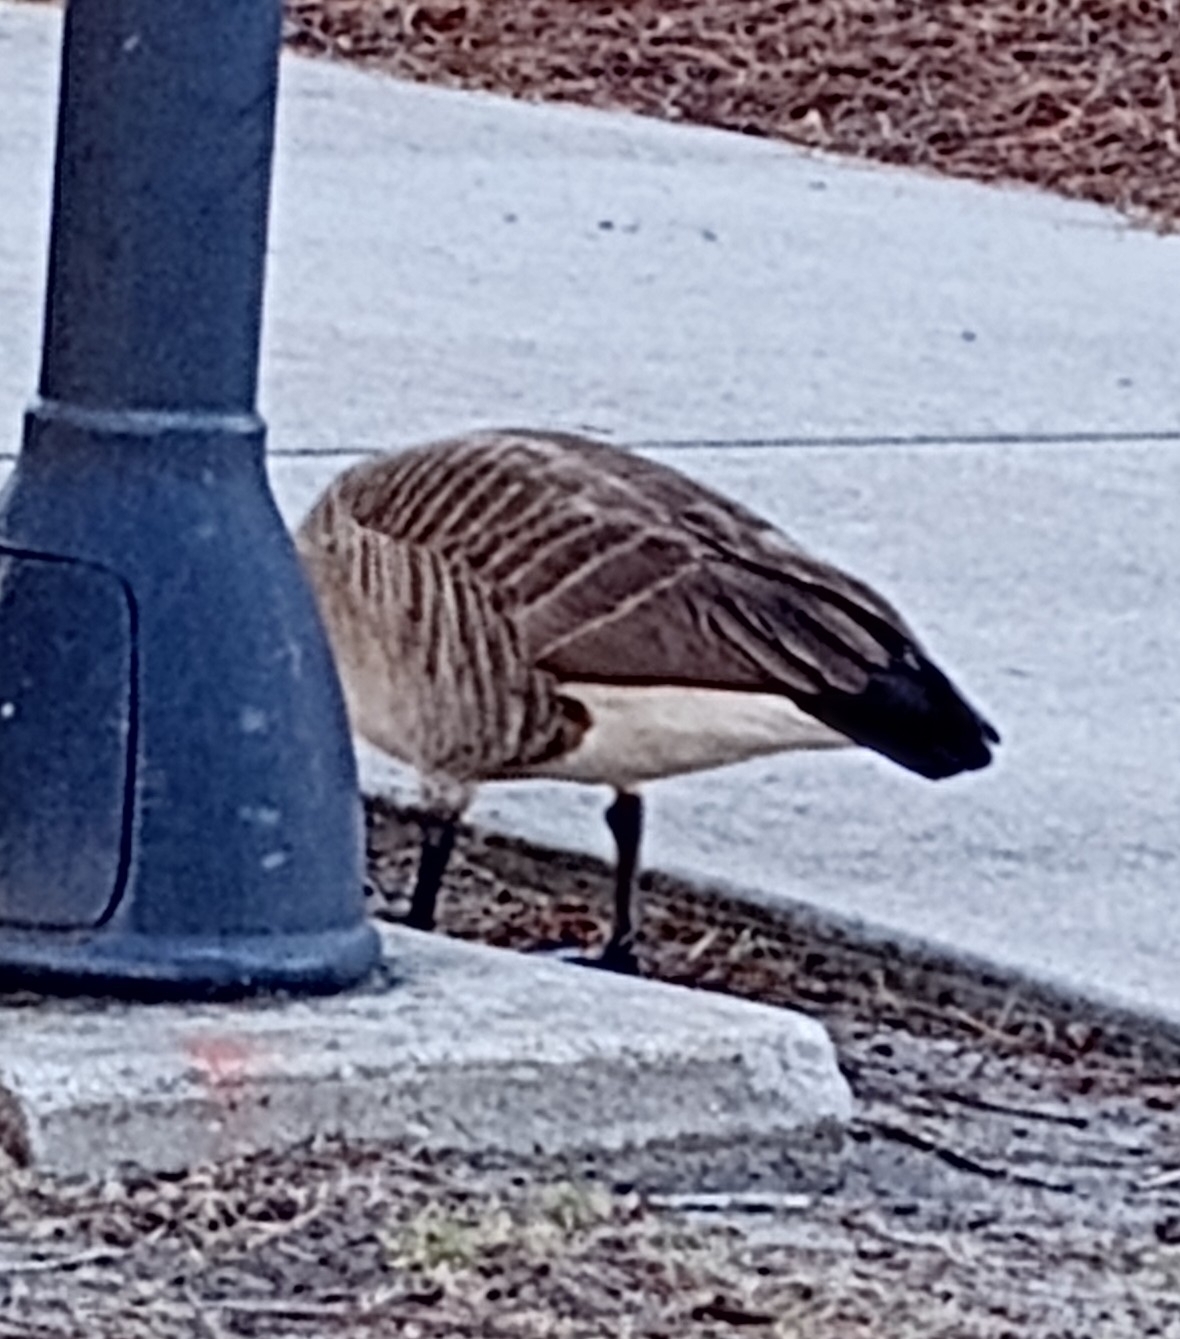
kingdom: Animalia
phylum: Chordata
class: Aves
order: Anseriformes
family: Anatidae
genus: Branta
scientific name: Branta canadensis
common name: Canada goose
